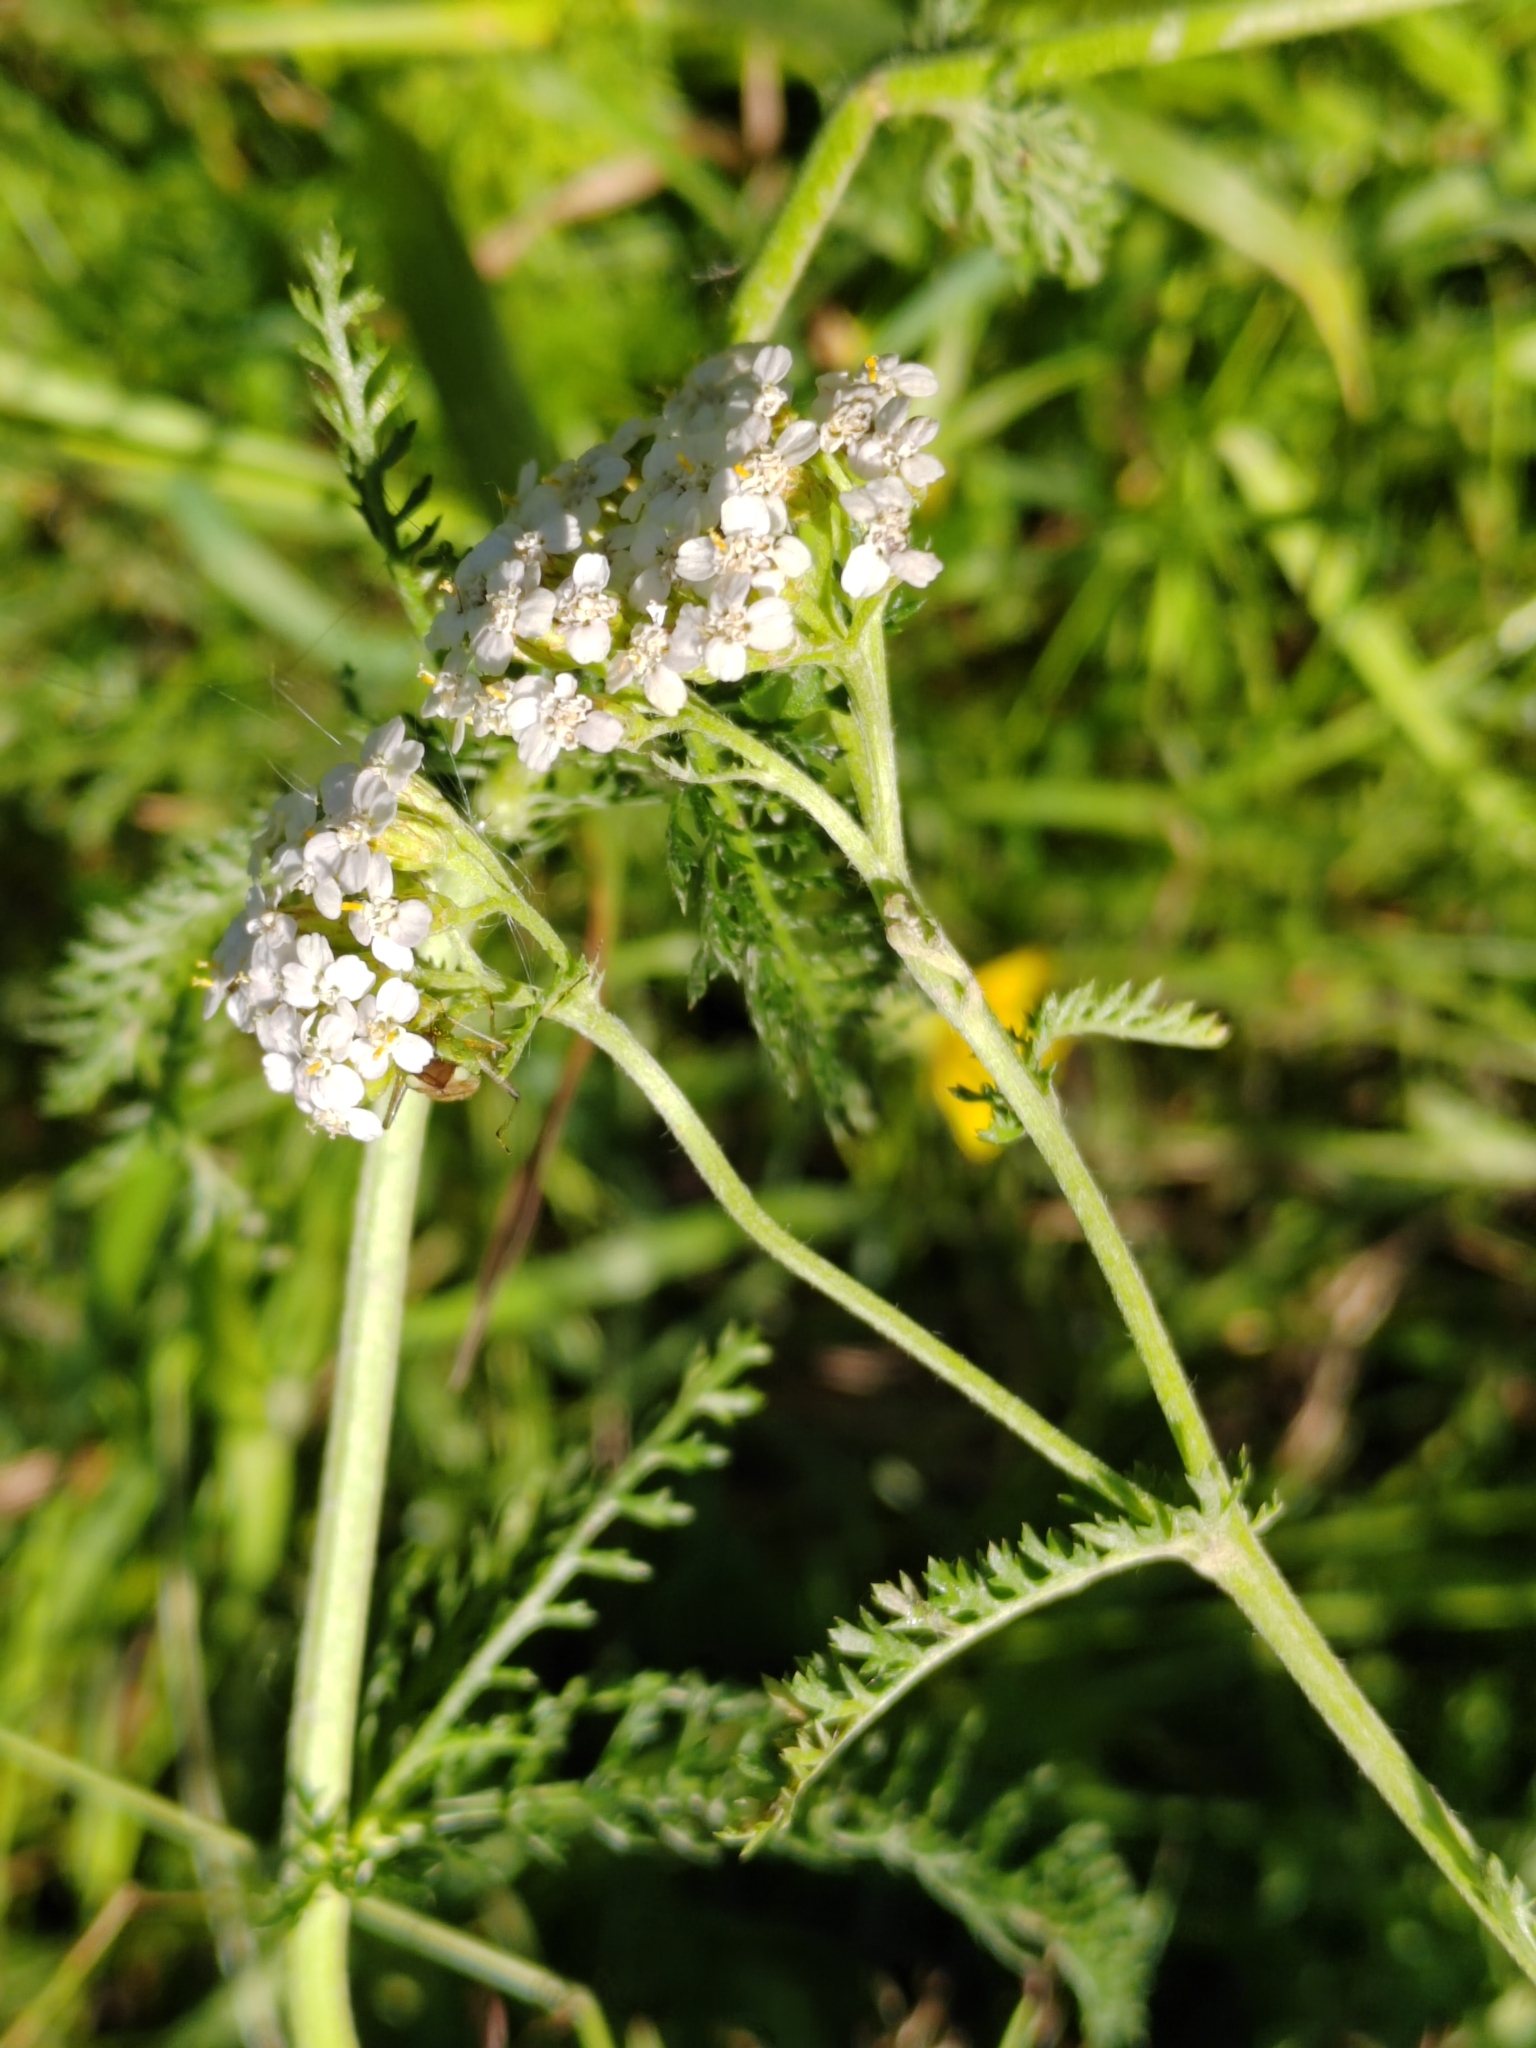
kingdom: Plantae
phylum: Tracheophyta
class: Magnoliopsida
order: Asterales
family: Asteraceae
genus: Achillea
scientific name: Achillea millefolium
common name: Yarrow
